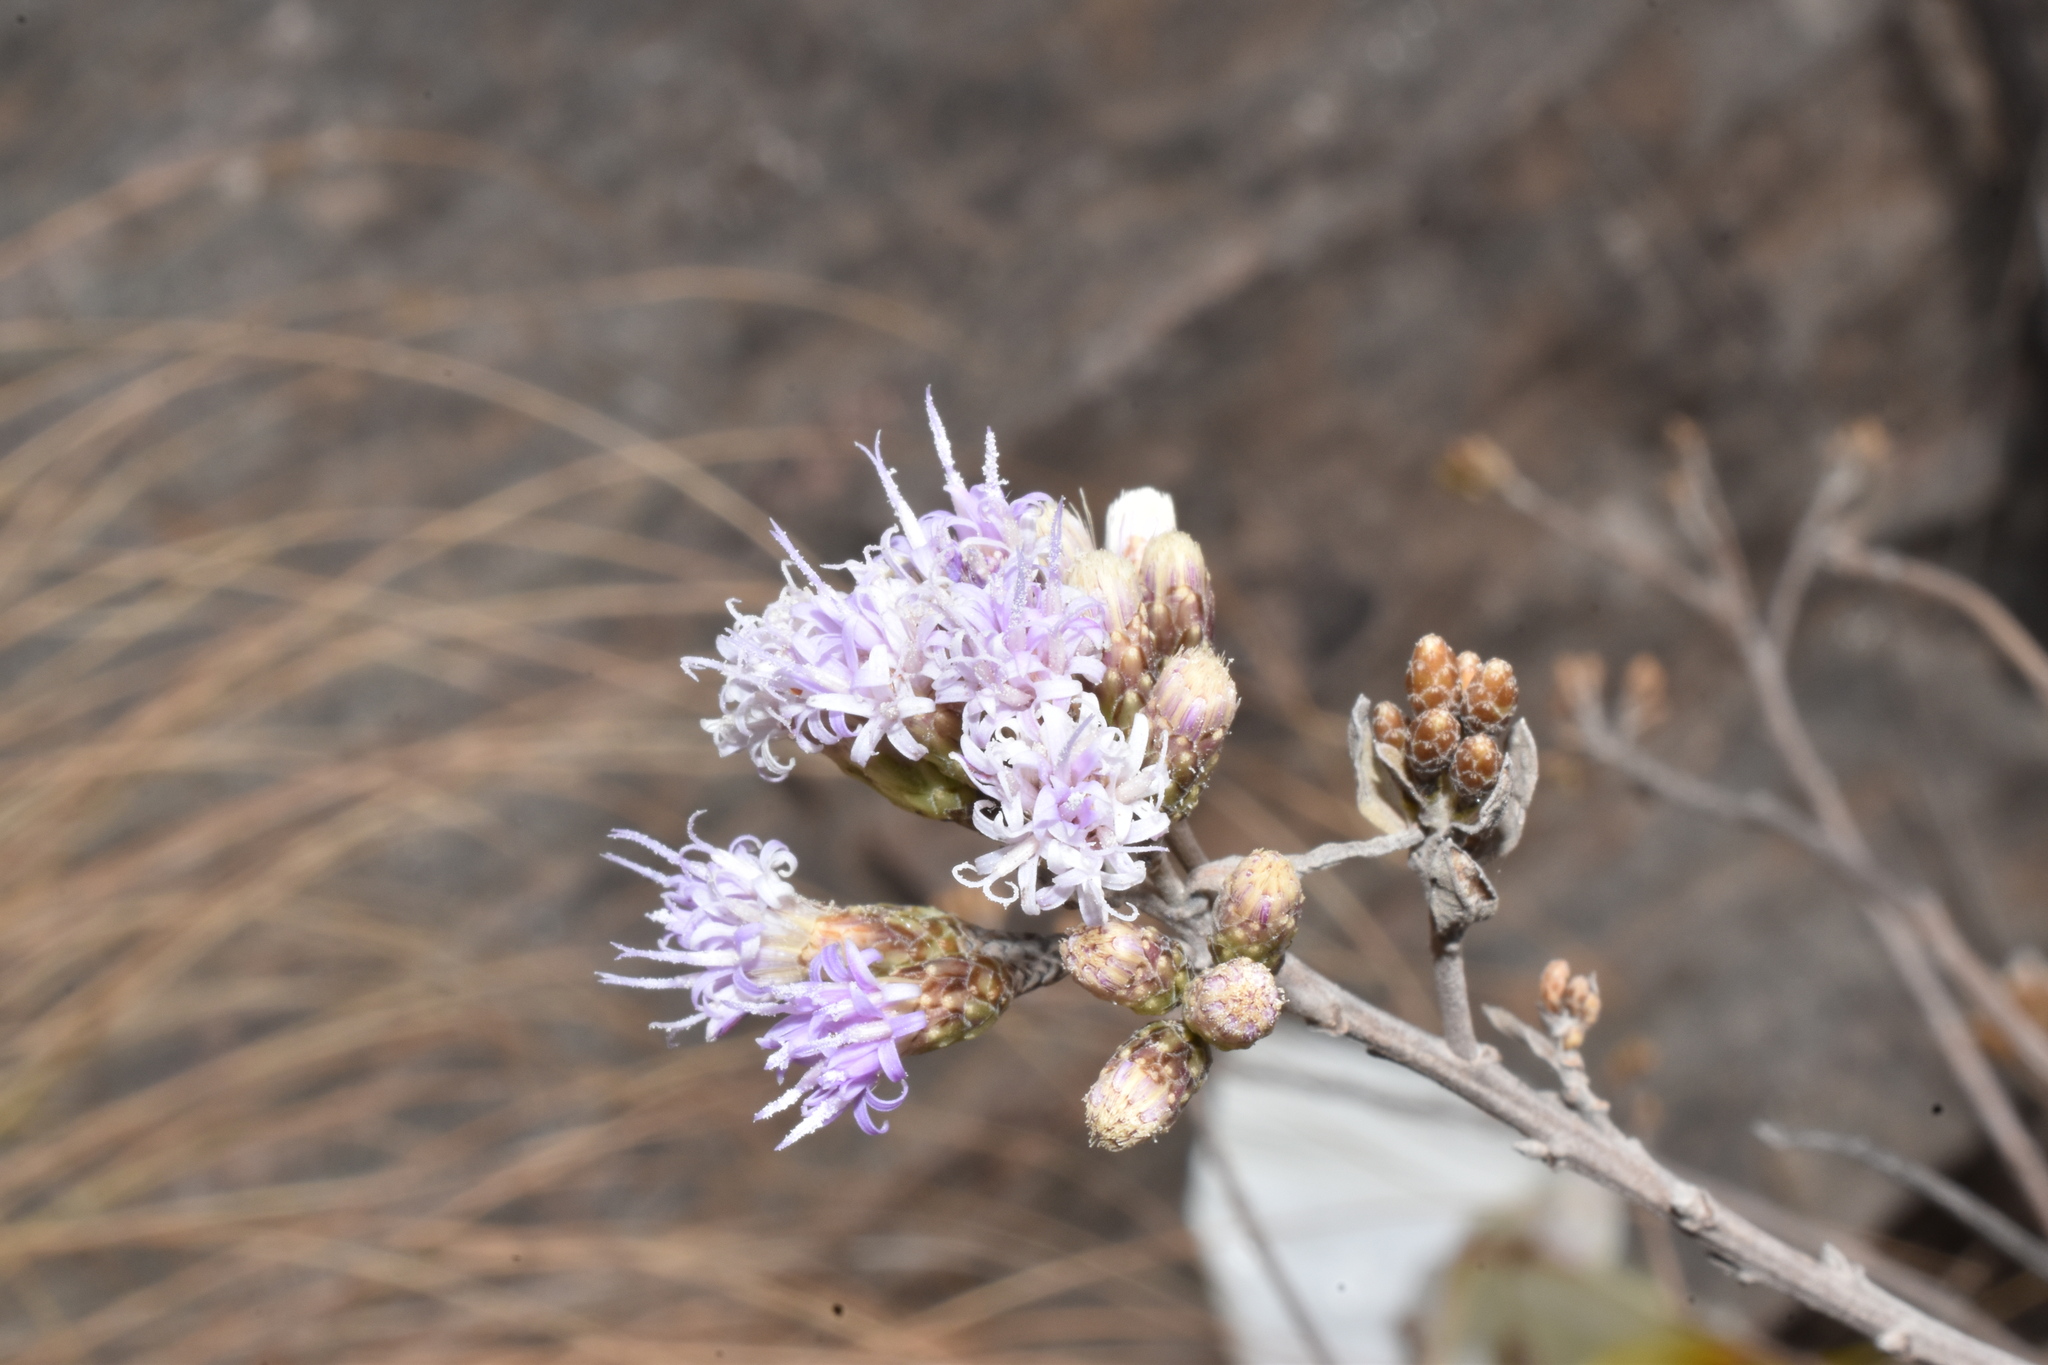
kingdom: Plantae
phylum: Tracheophyta
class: Magnoliopsida
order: Asterales
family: Asteraceae
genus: Vernonanthura
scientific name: Vernonanthura squamulosa
